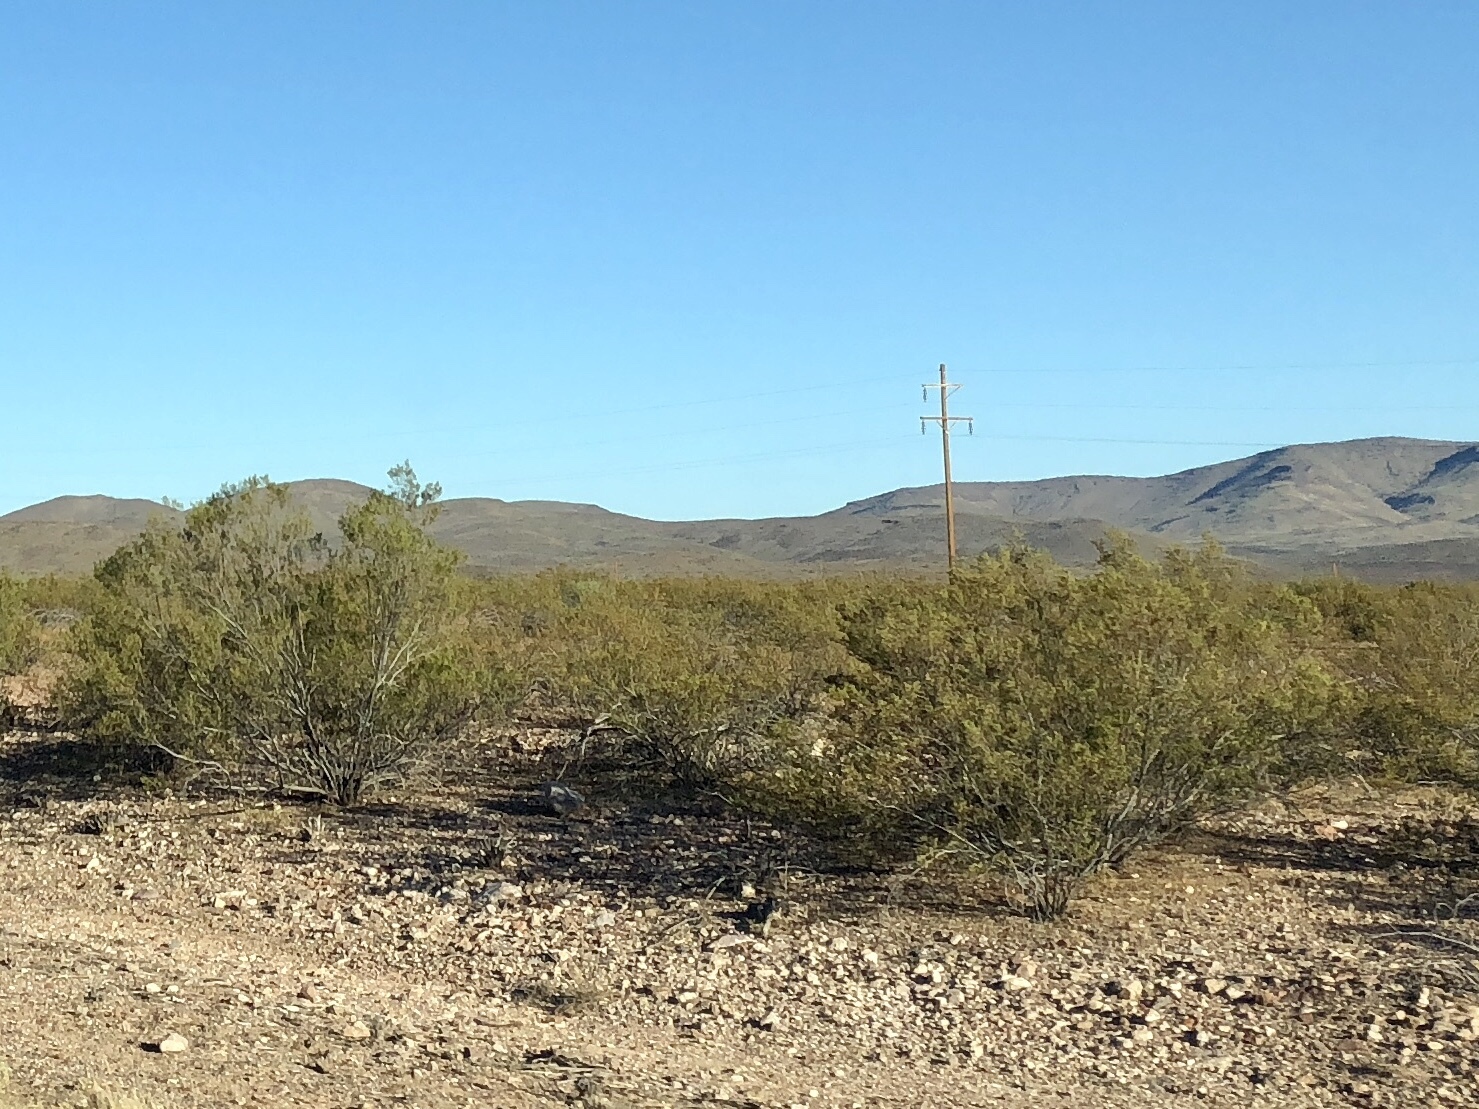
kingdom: Plantae
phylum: Tracheophyta
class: Magnoliopsida
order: Zygophyllales
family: Zygophyllaceae
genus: Larrea
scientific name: Larrea tridentata
